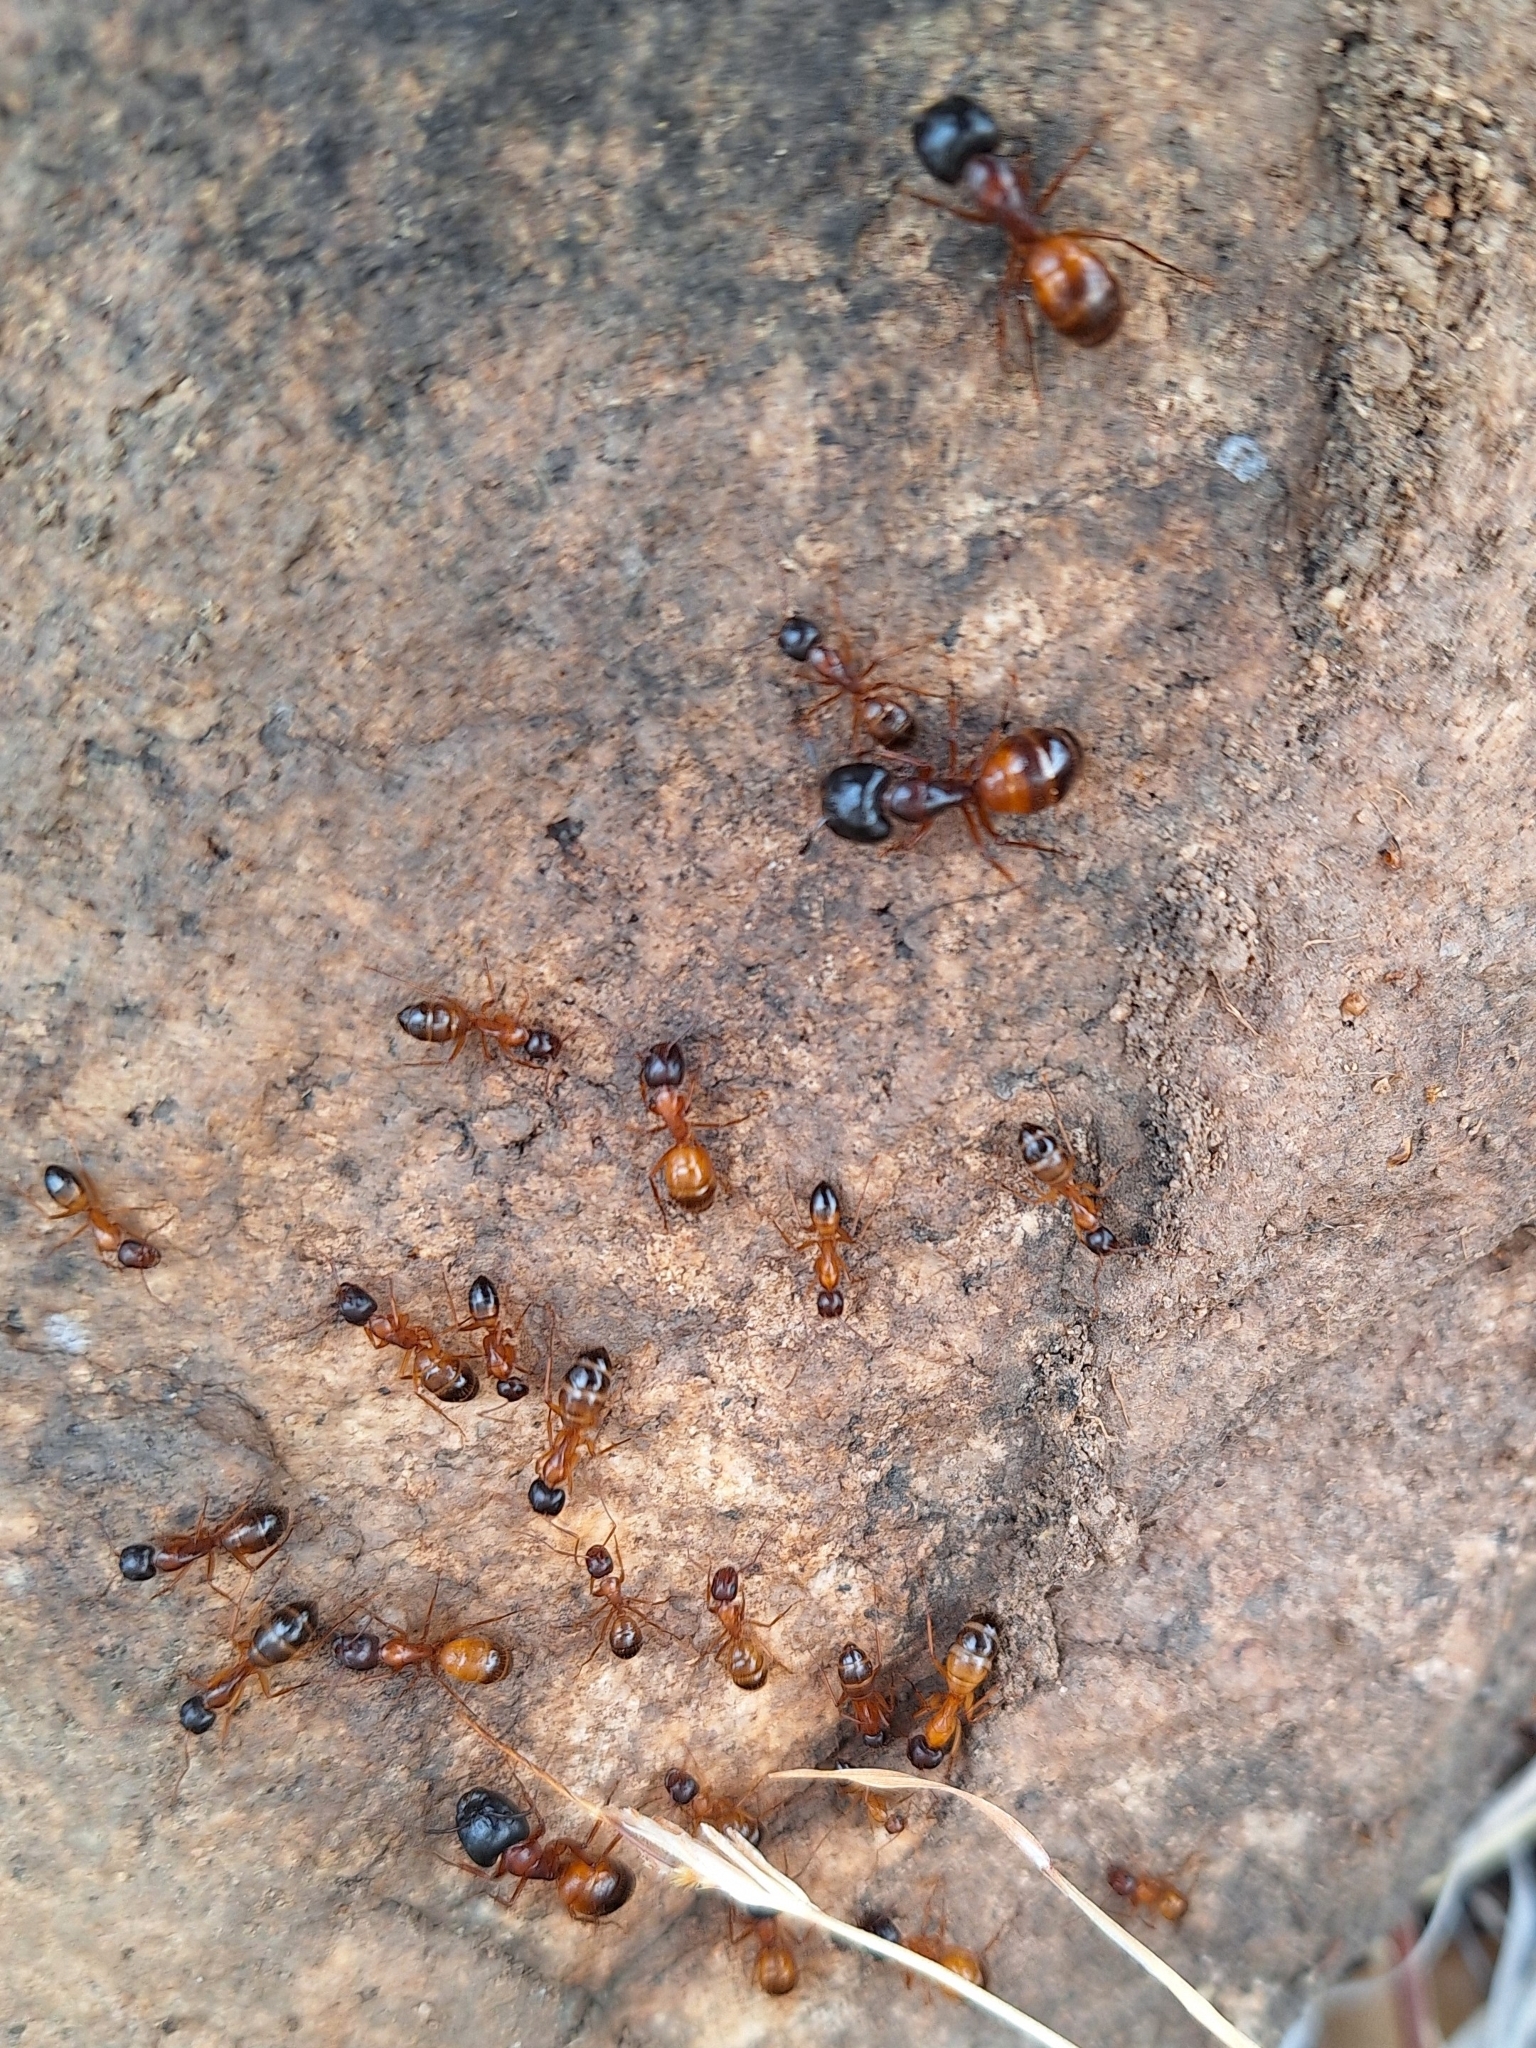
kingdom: Animalia
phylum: Arthropoda
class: Insecta
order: Hymenoptera
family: Formicidae
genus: Camponotus
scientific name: Camponotus sansabeanus
